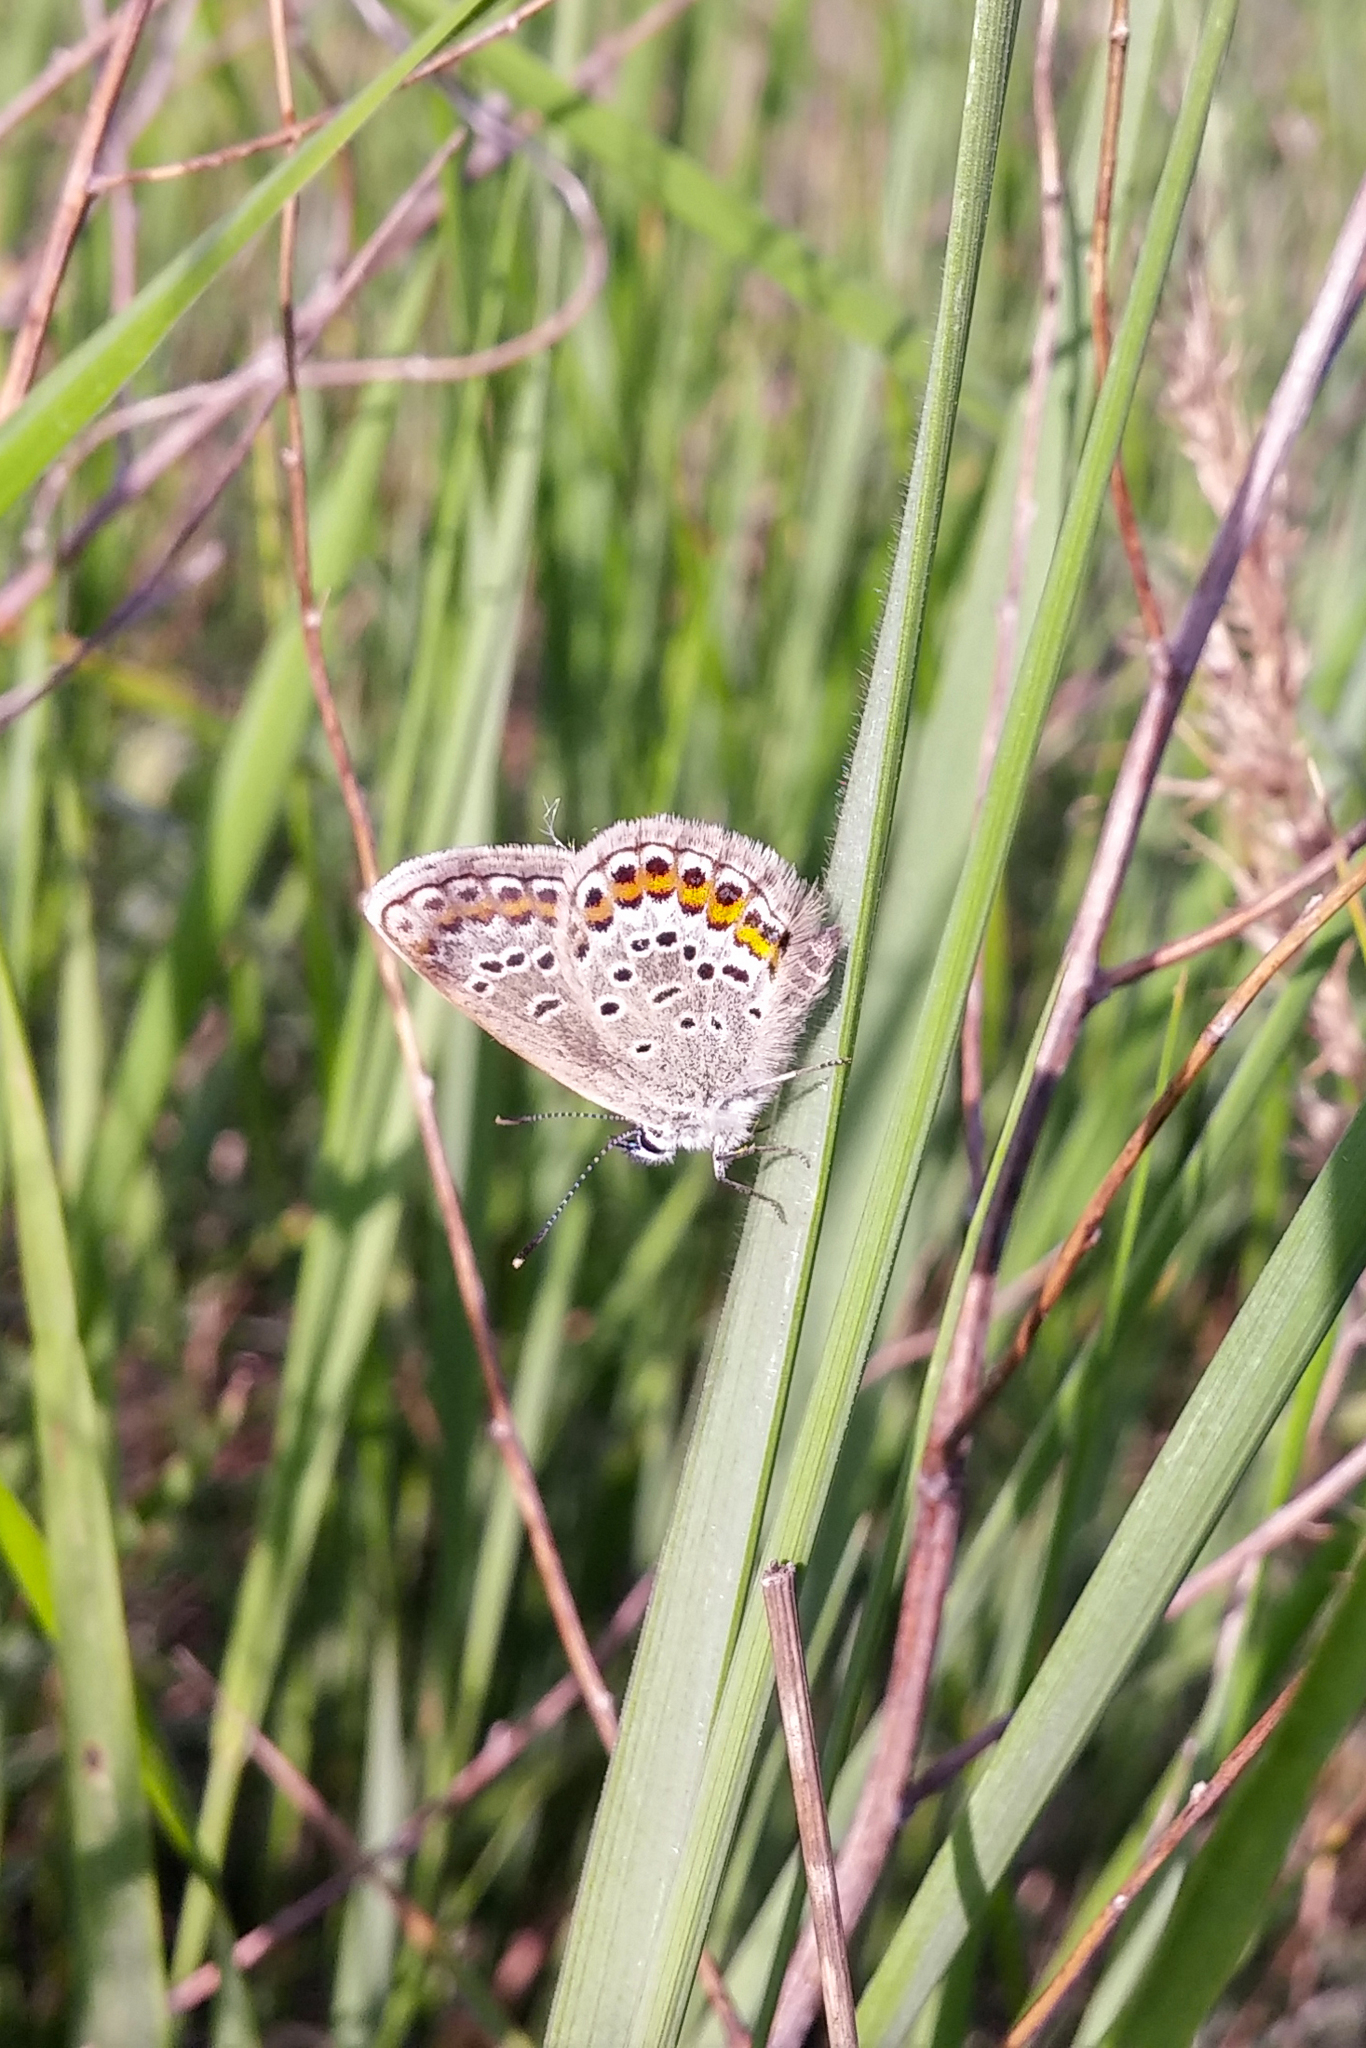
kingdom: Animalia
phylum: Arthropoda
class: Insecta
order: Lepidoptera
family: Lycaenidae
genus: Plebejus
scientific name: Plebejus argus
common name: Silver-studded blue
